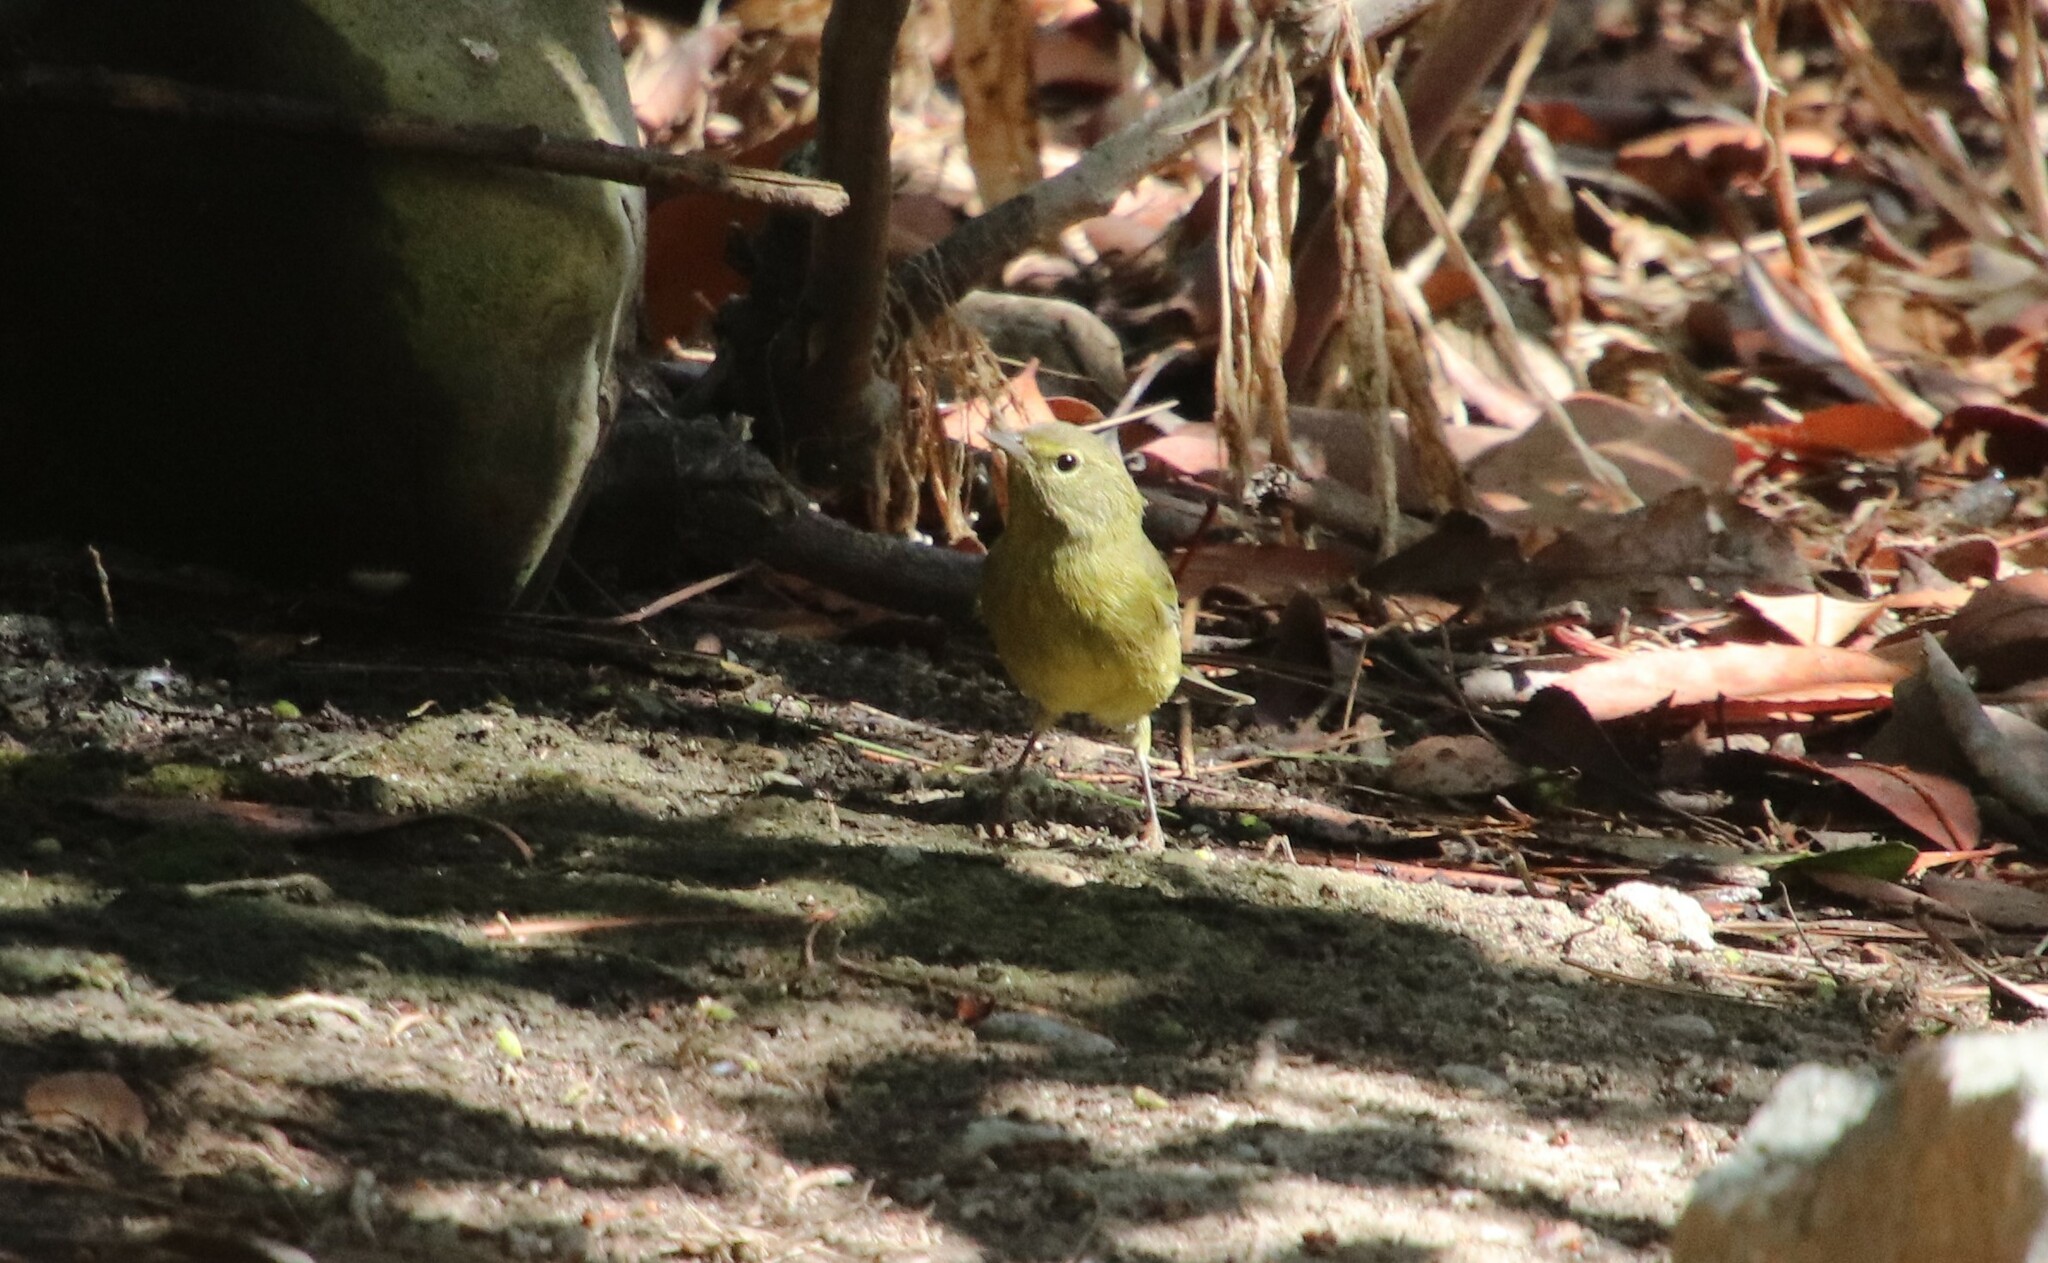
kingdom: Animalia
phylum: Chordata
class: Aves
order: Passeriformes
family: Parulidae
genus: Leiothlypis
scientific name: Leiothlypis celata
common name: Orange-crowned warbler
